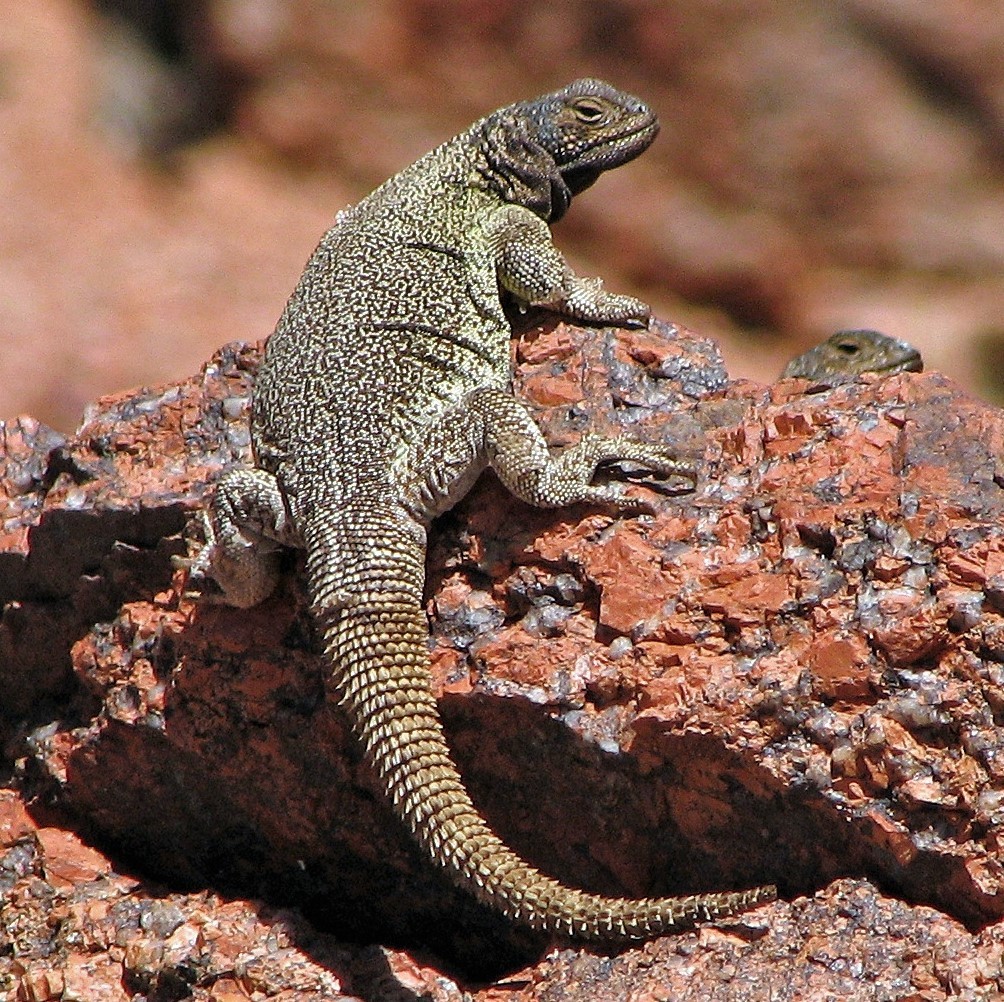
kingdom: Animalia
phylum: Chordata
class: Squamata
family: Liolaemidae
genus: Phymaturus
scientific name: Phymaturus punae
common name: Cei's mountain lizard
